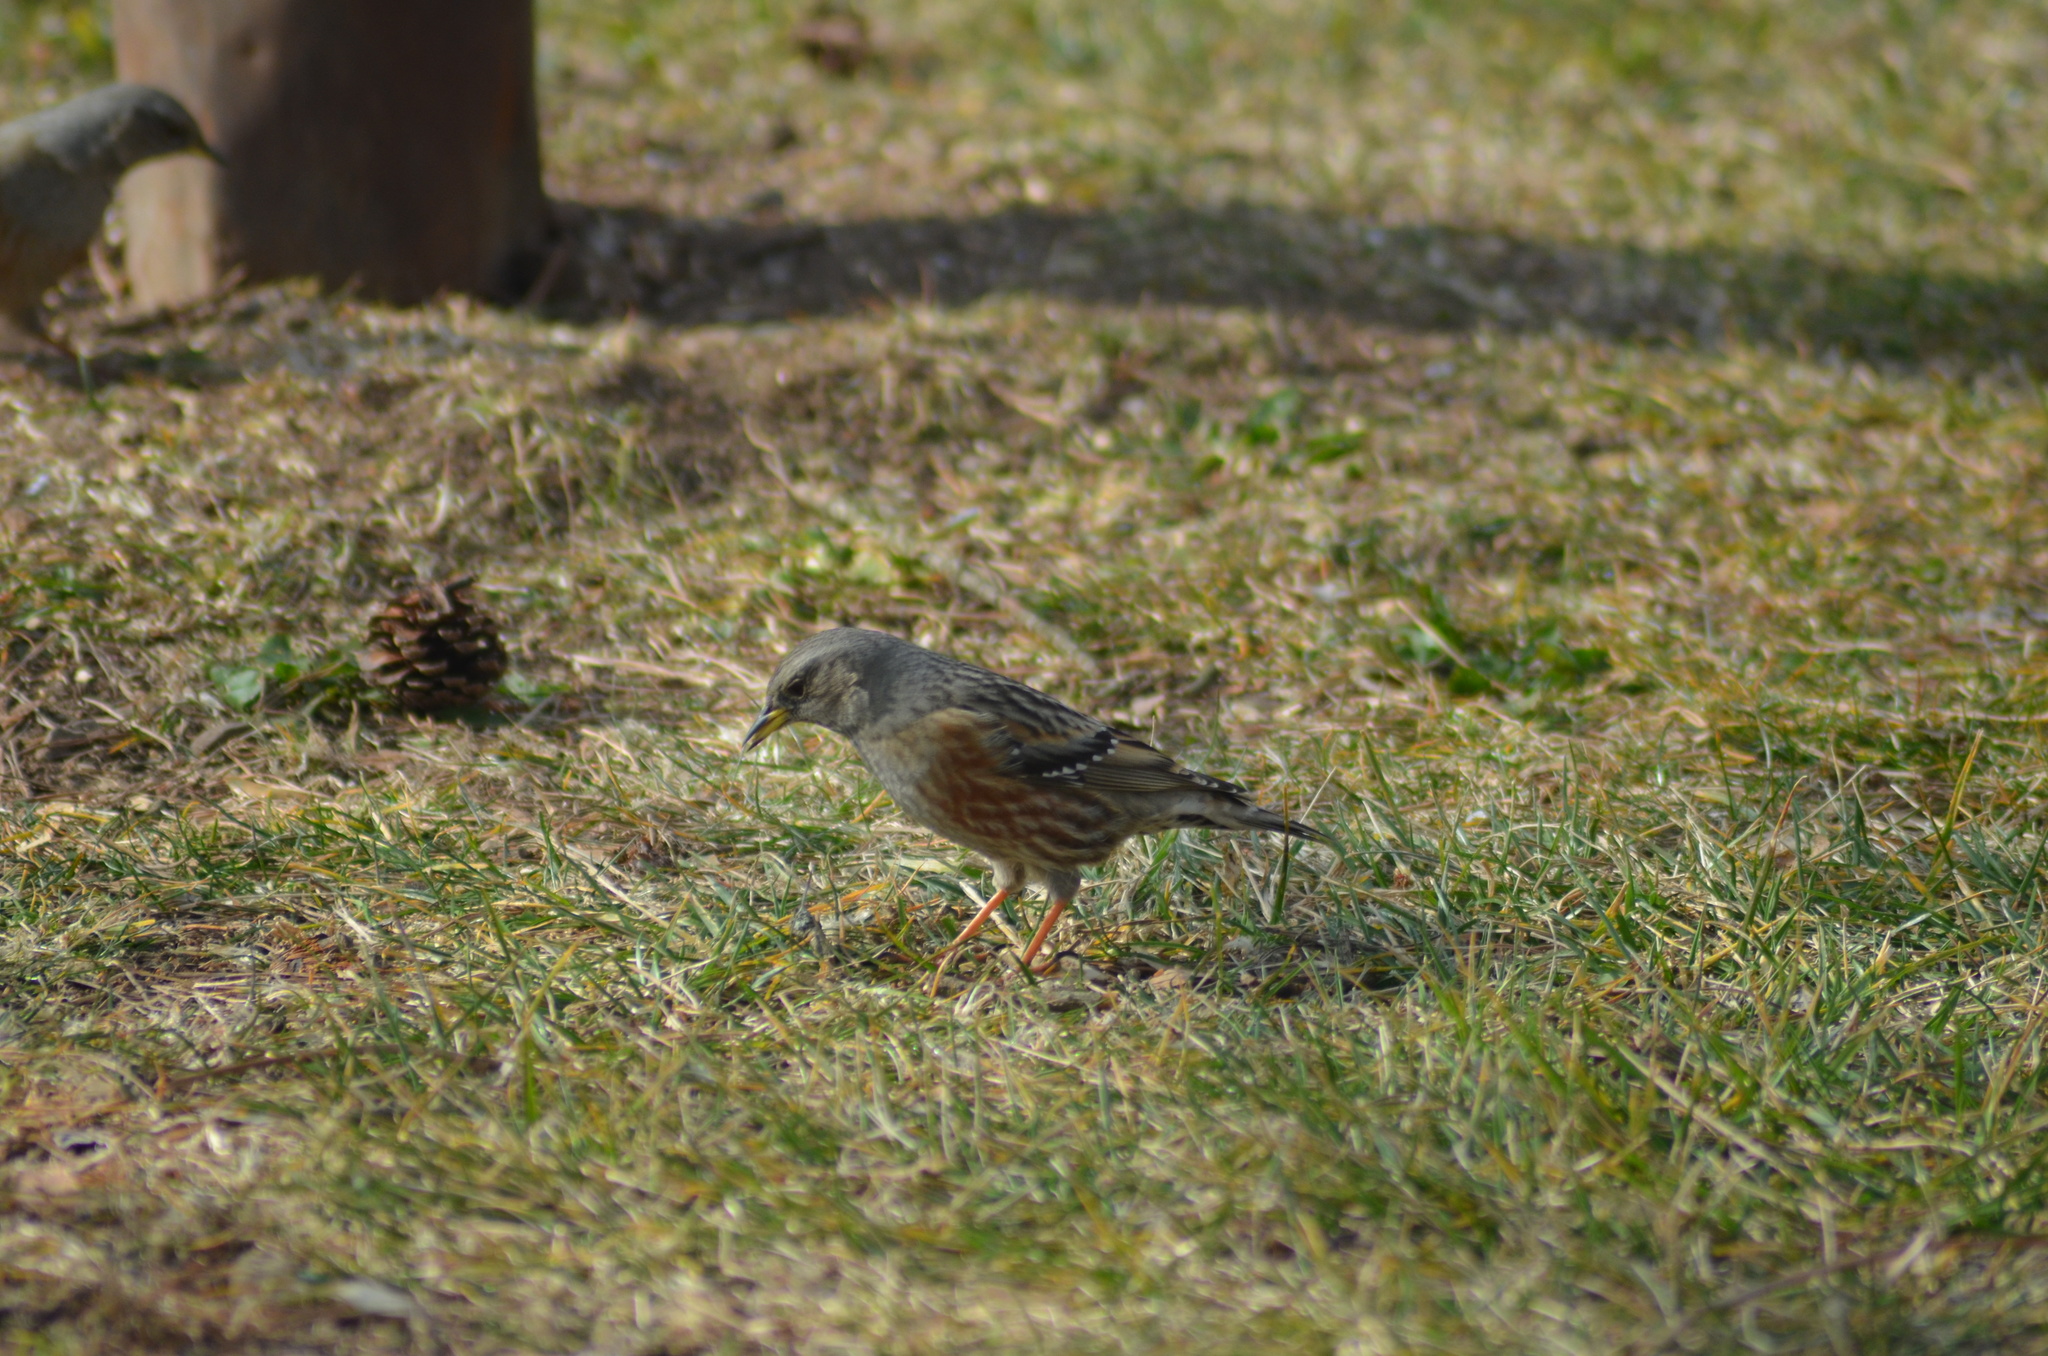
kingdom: Animalia
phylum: Chordata
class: Aves
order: Passeriformes
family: Prunellidae
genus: Prunella
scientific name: Prunella collaris
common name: Alpine accentor
